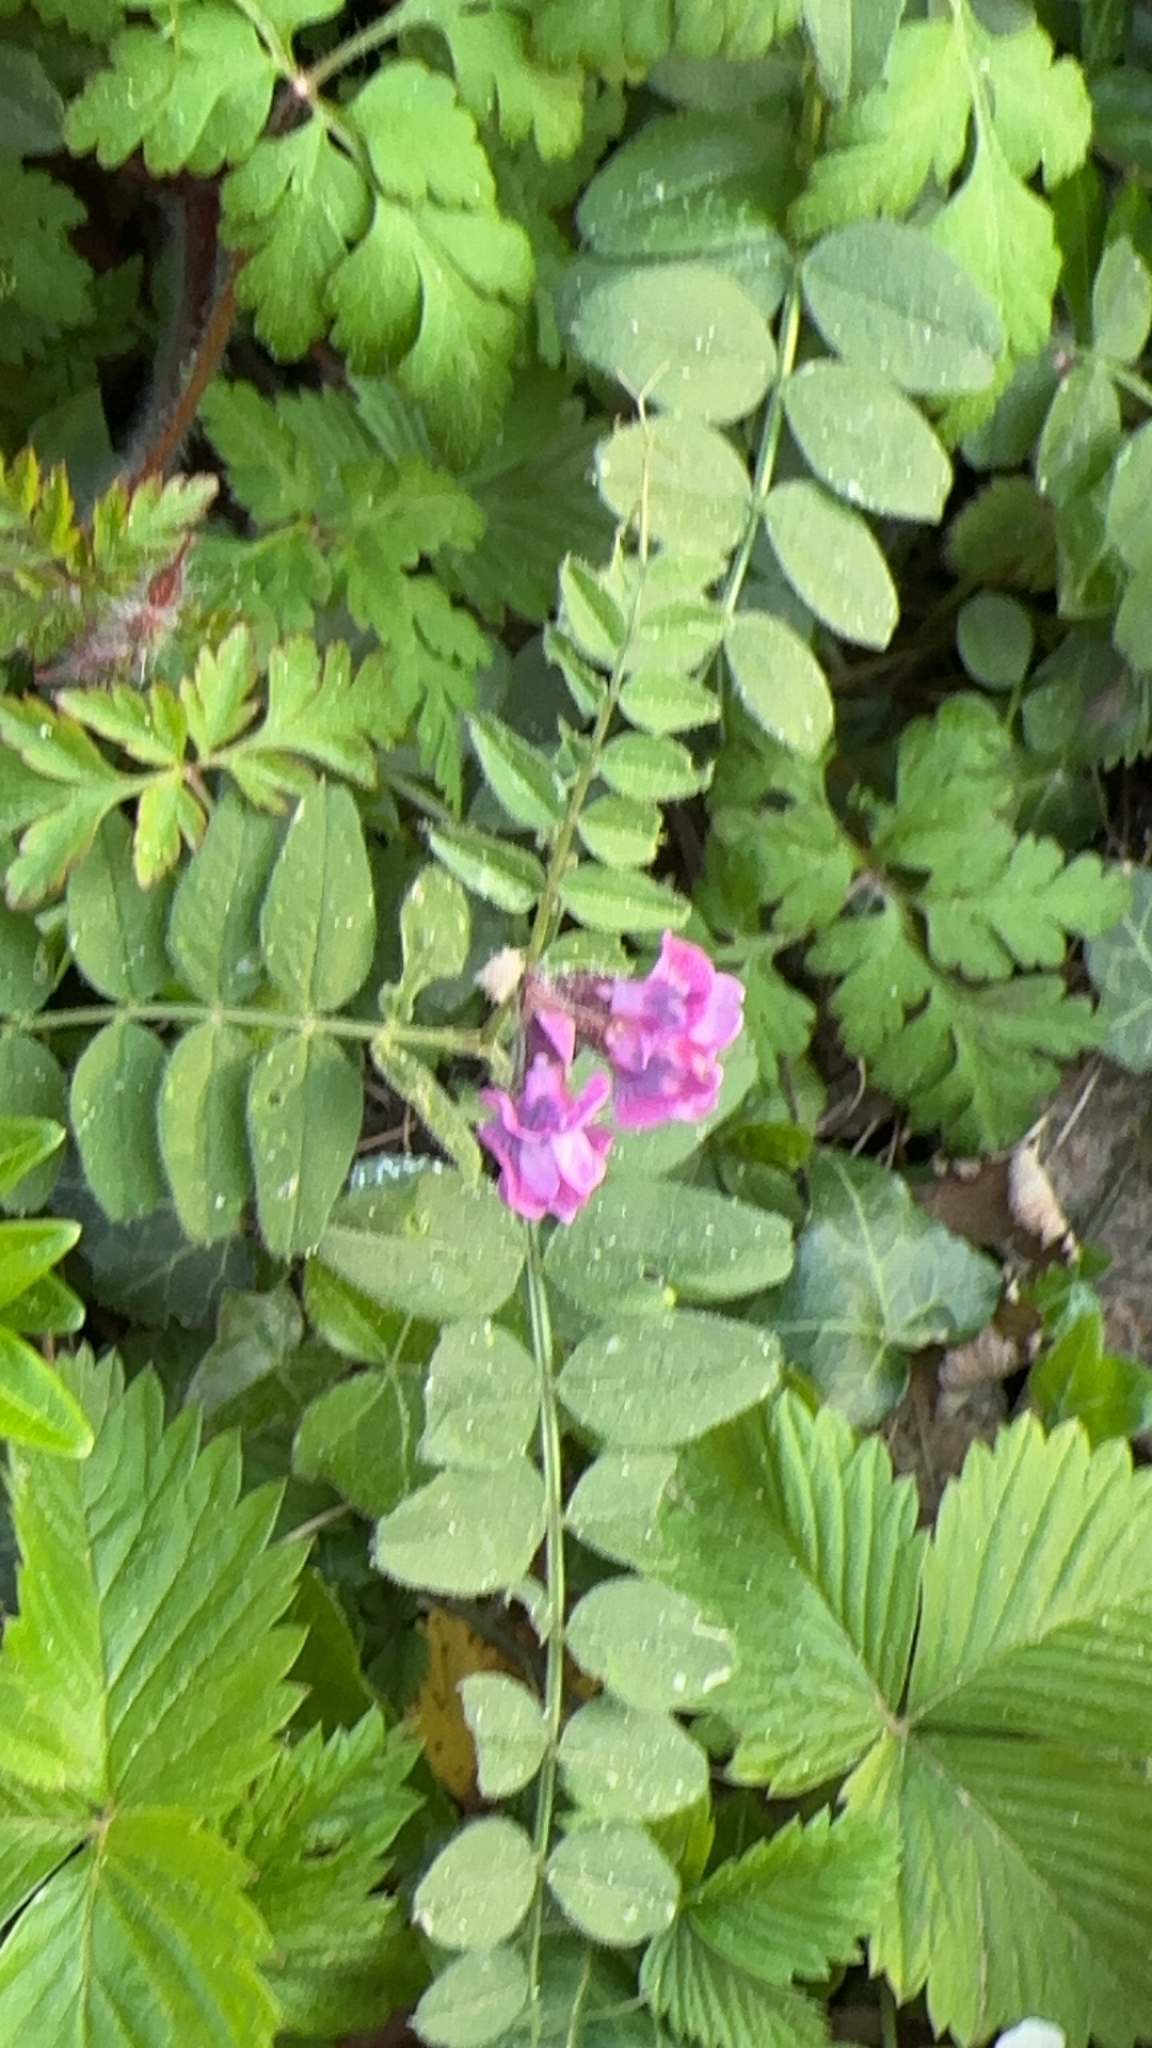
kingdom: Plantae
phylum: Tracheophyta
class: Magnoliopsida
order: Fabales
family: Fabaceae
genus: Vicia
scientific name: Vicia sepium
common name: Bush vetch
